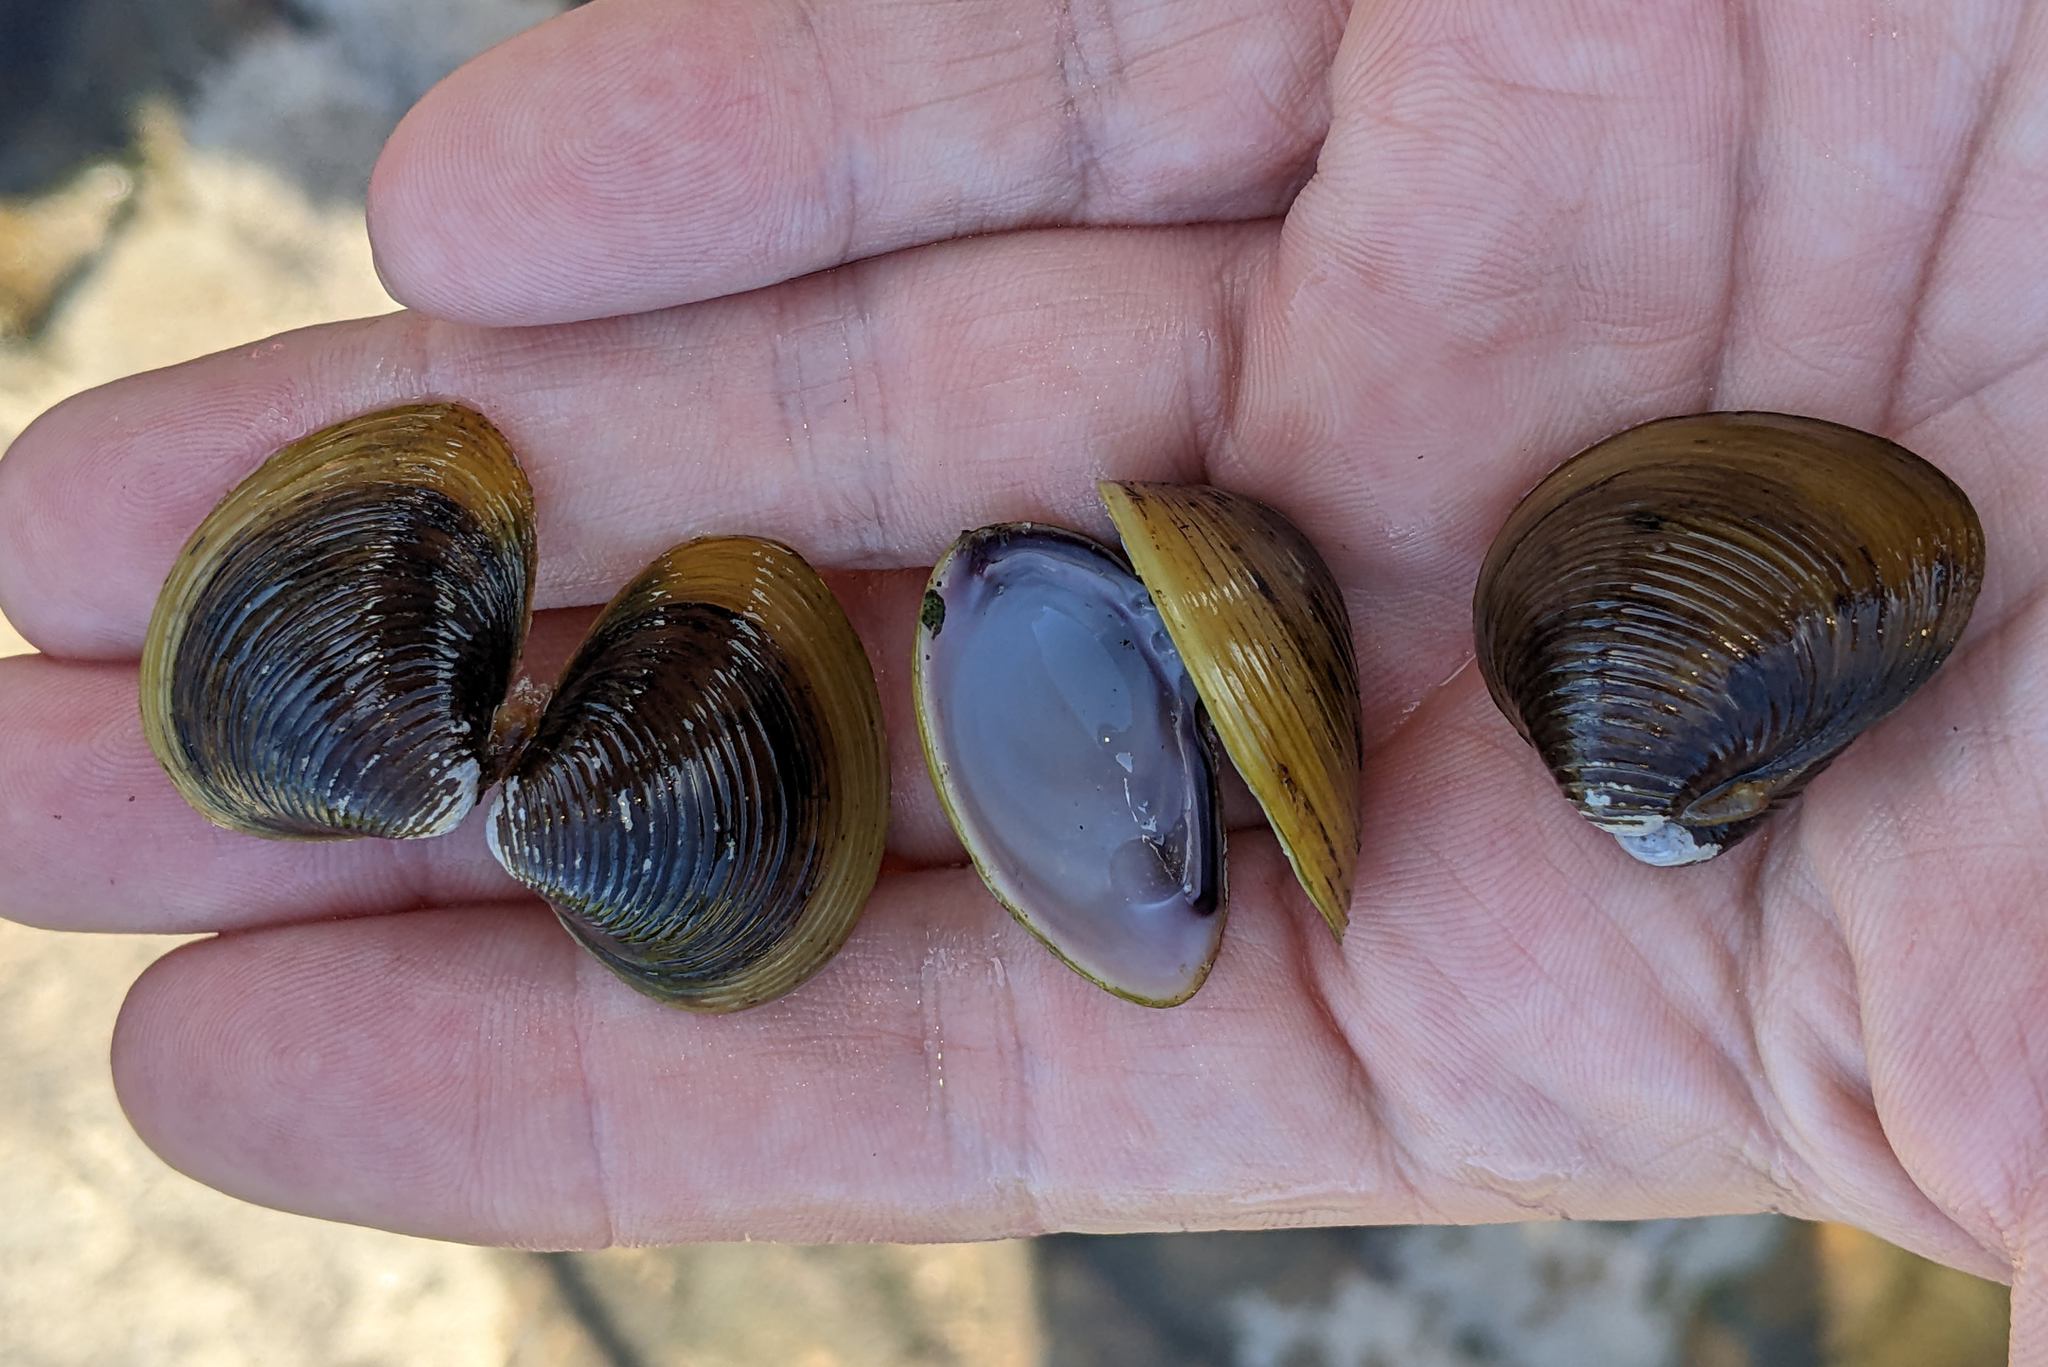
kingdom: Animalia
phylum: Mollusca
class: Bivalvia
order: Venerida
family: Cyrenidae
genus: Corbicula
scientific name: Corbicula fluminea
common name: Asian clam
